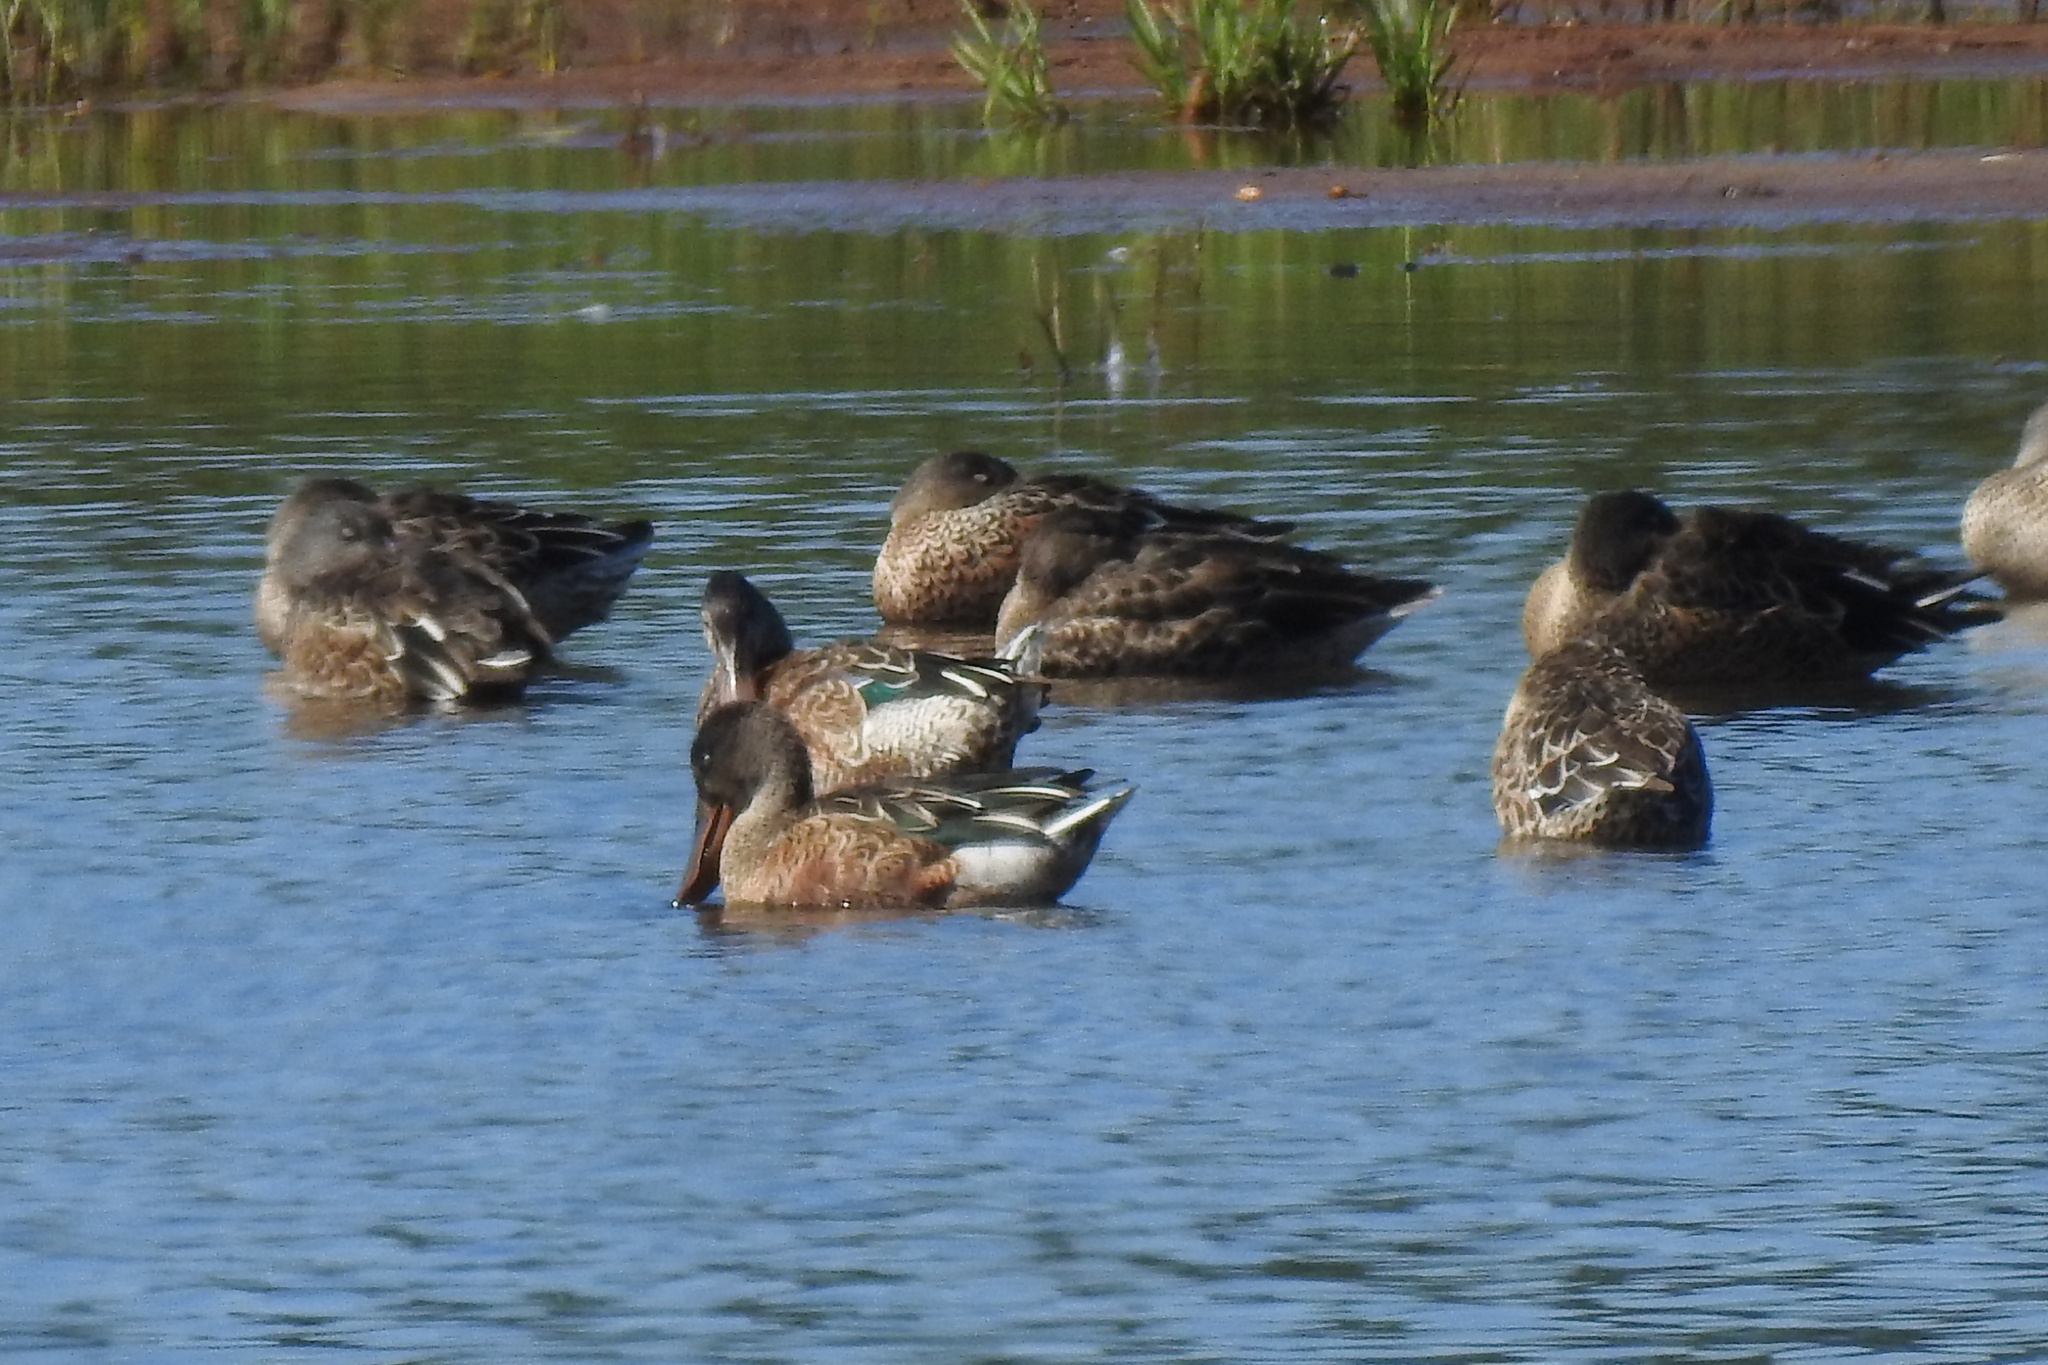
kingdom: Animalia
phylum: Chordata
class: Aves
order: Anseriformes
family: Anatidae
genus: Spatula
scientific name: Spatula clypeata
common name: Northern shoveler
